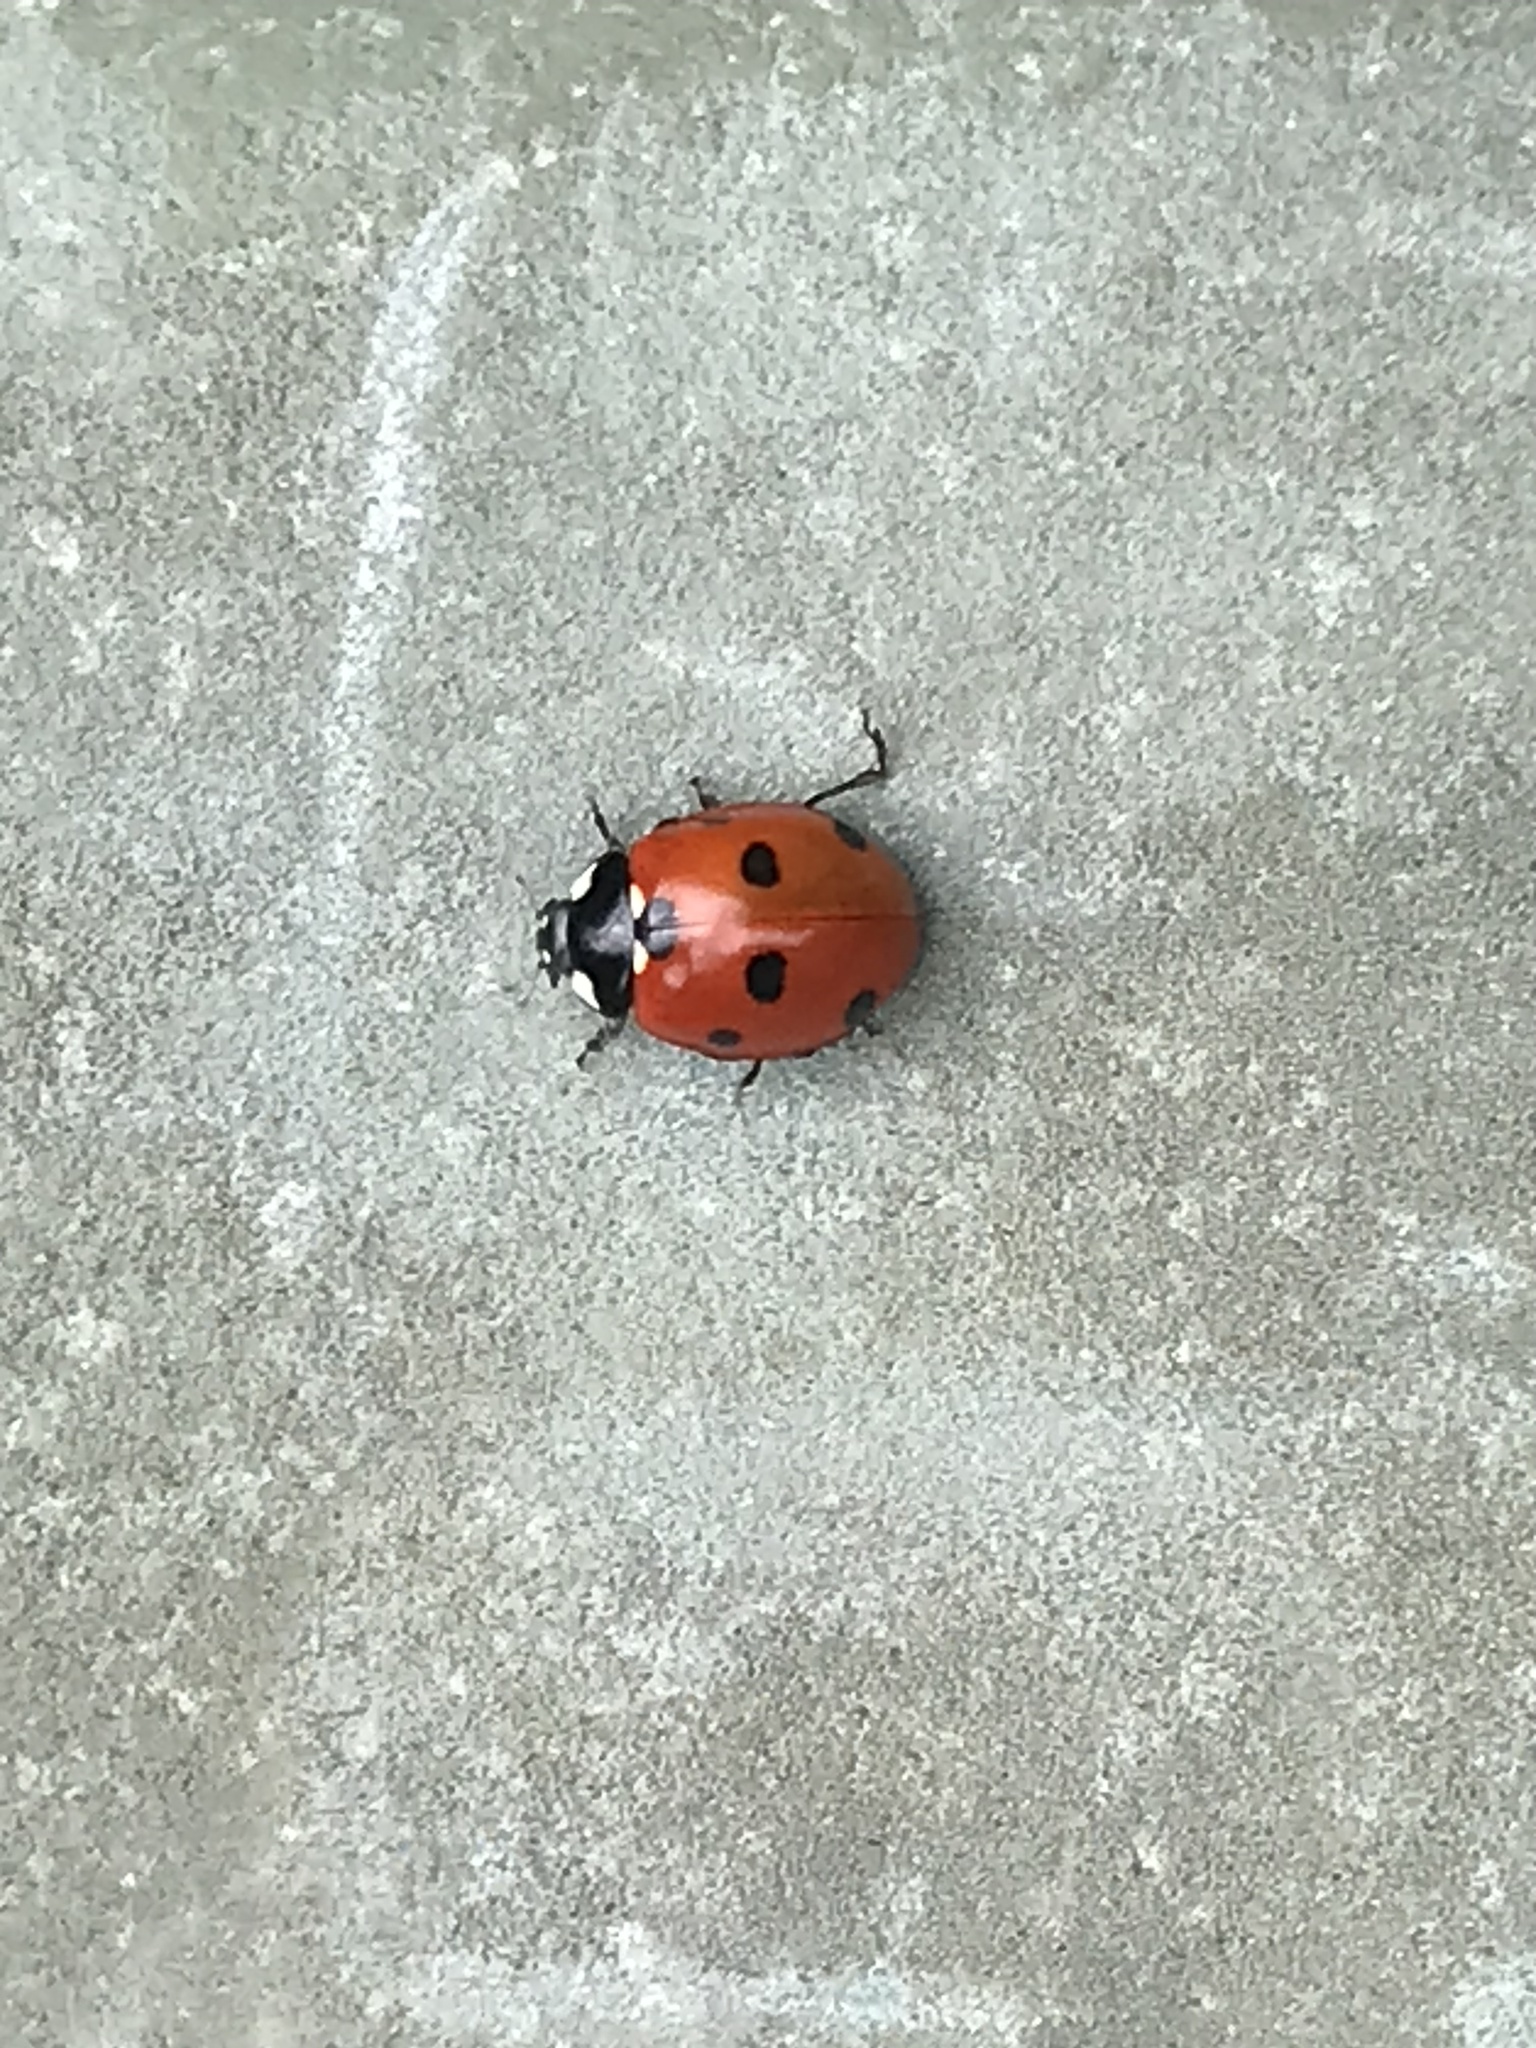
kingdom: Animalia
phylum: Arthropoda
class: Insecta
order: Coleoptera
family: Coccinellidae
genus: Coccinella
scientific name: Coccinella septempunctata
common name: Sevenspotted lady beetle
